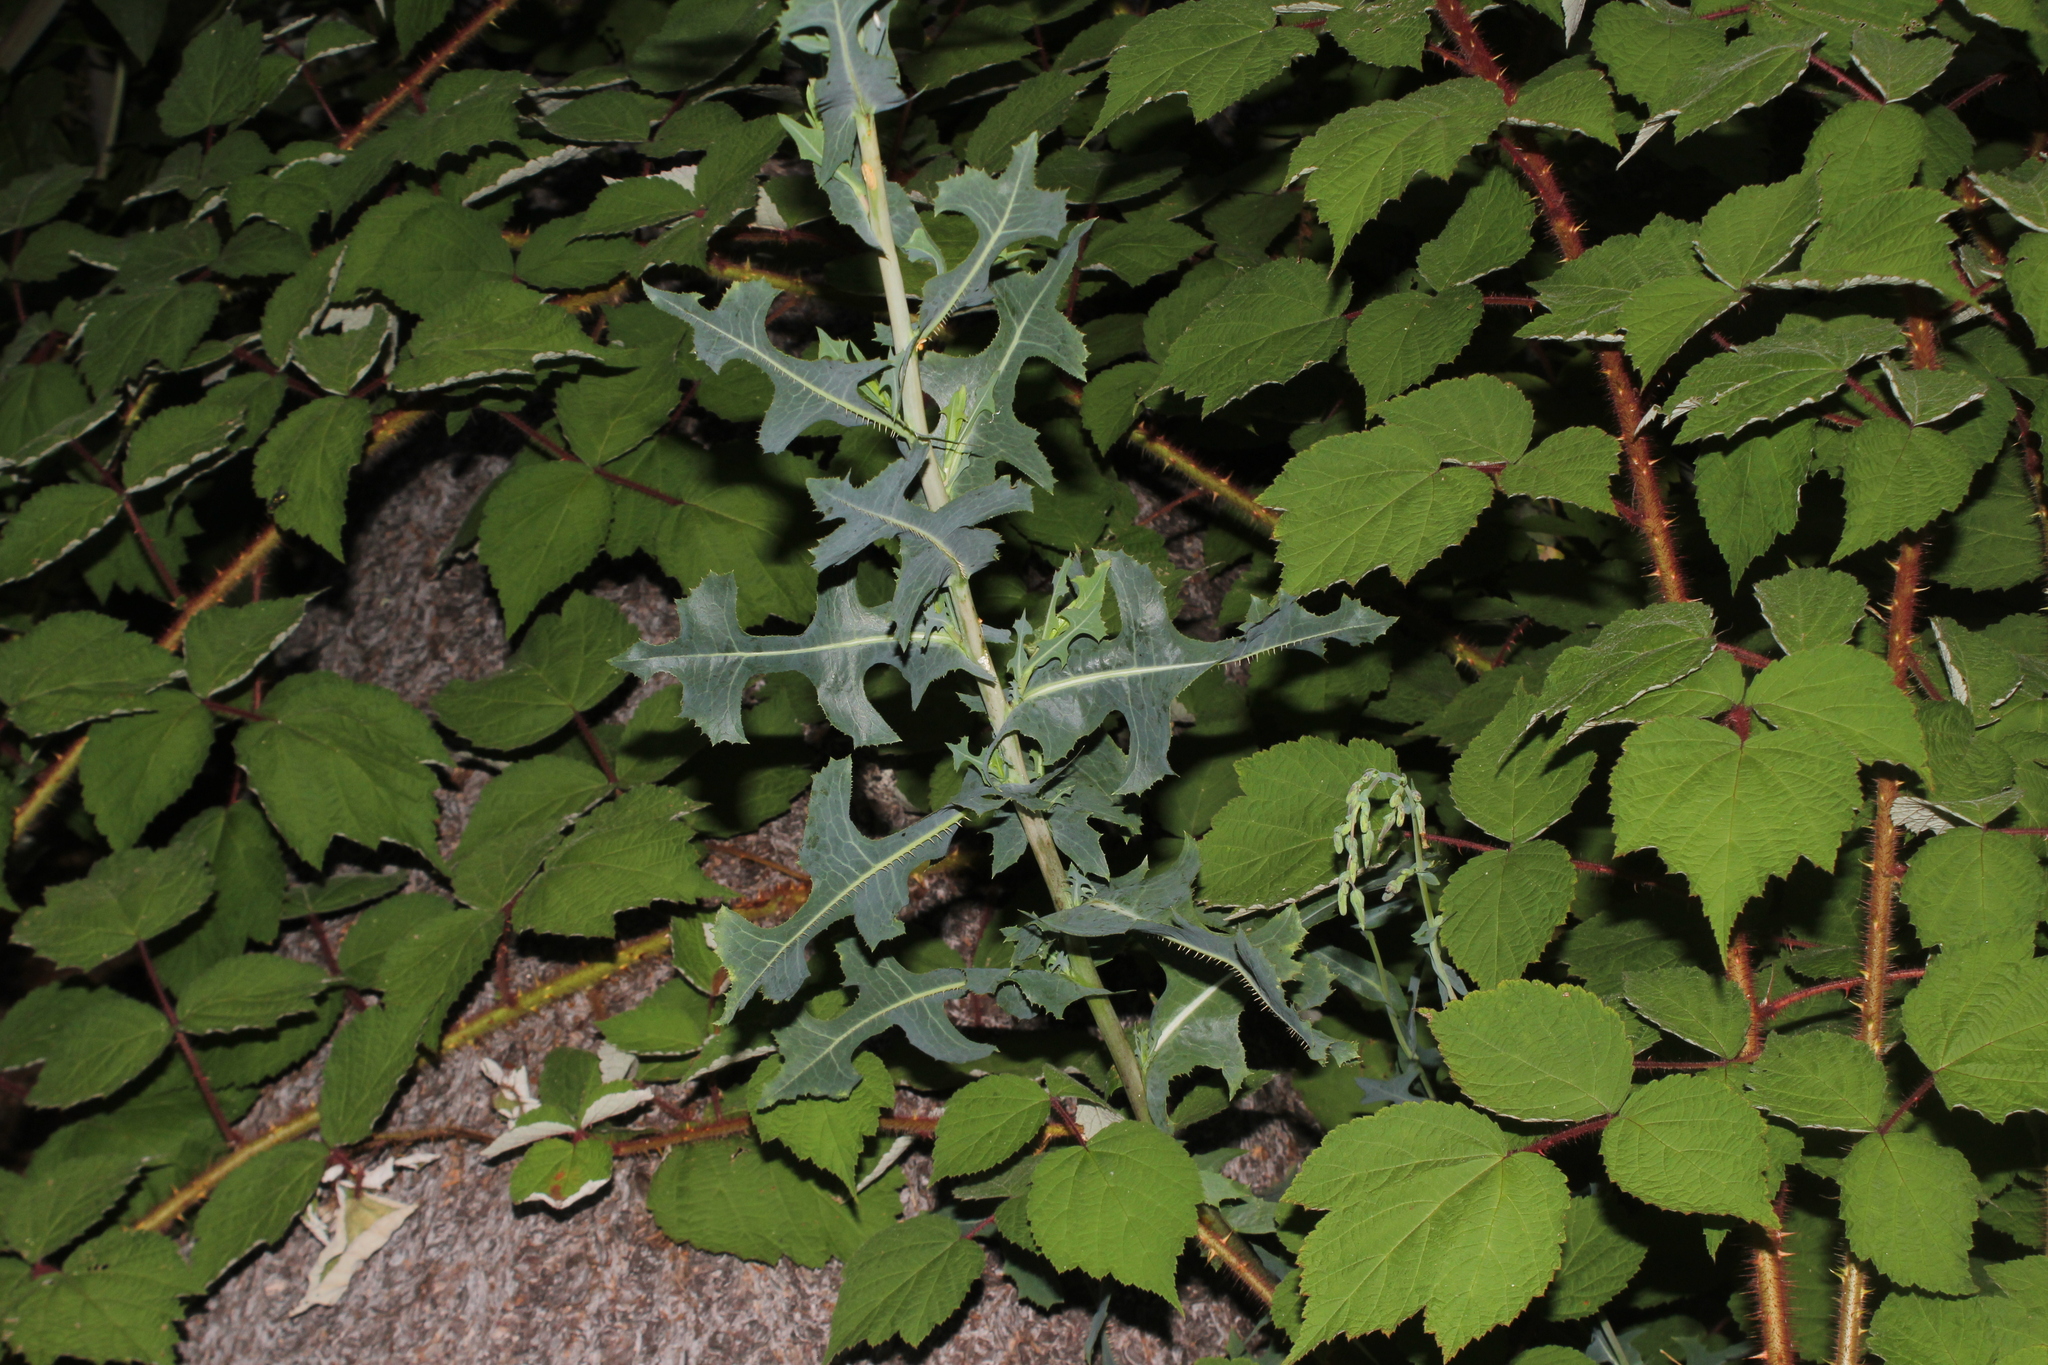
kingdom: Plantae
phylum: Tracheophyta
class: Magnoliopsida
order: Asterales
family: Asteraceae
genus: Lactuca
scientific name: Lactuca serriola
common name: Prickly lettuce
